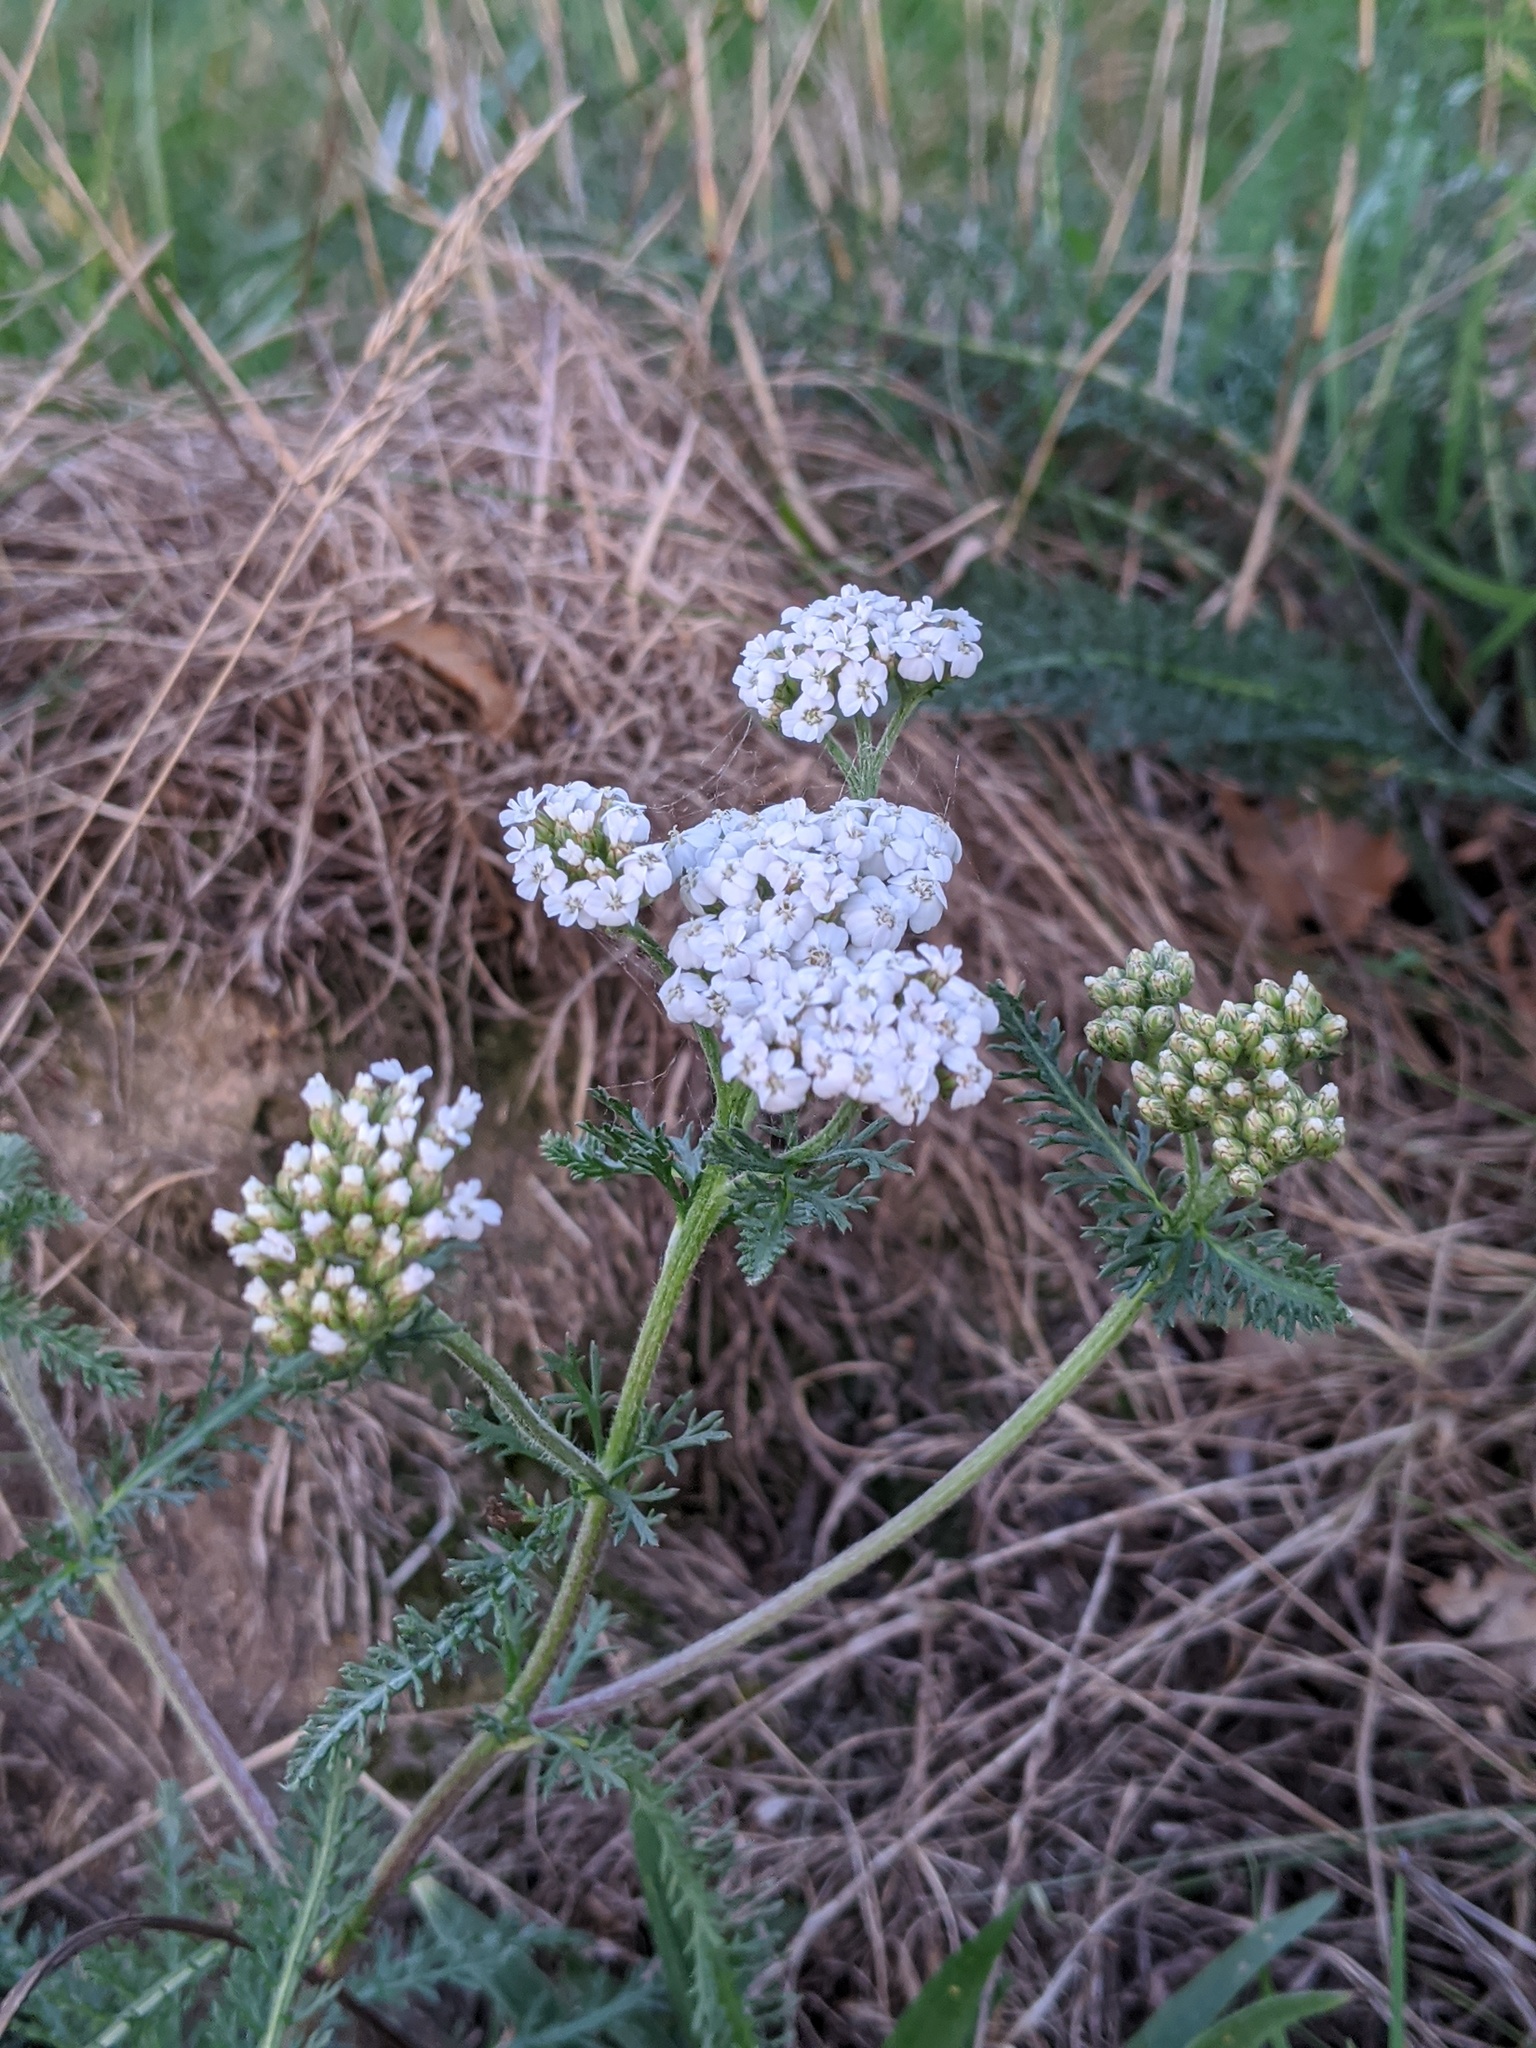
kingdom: Plantae
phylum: Tracheophyta
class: Magnoliopsida
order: Asterales
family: Asteraceae
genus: Achillea
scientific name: Achillea millefolium
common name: Yarrow
